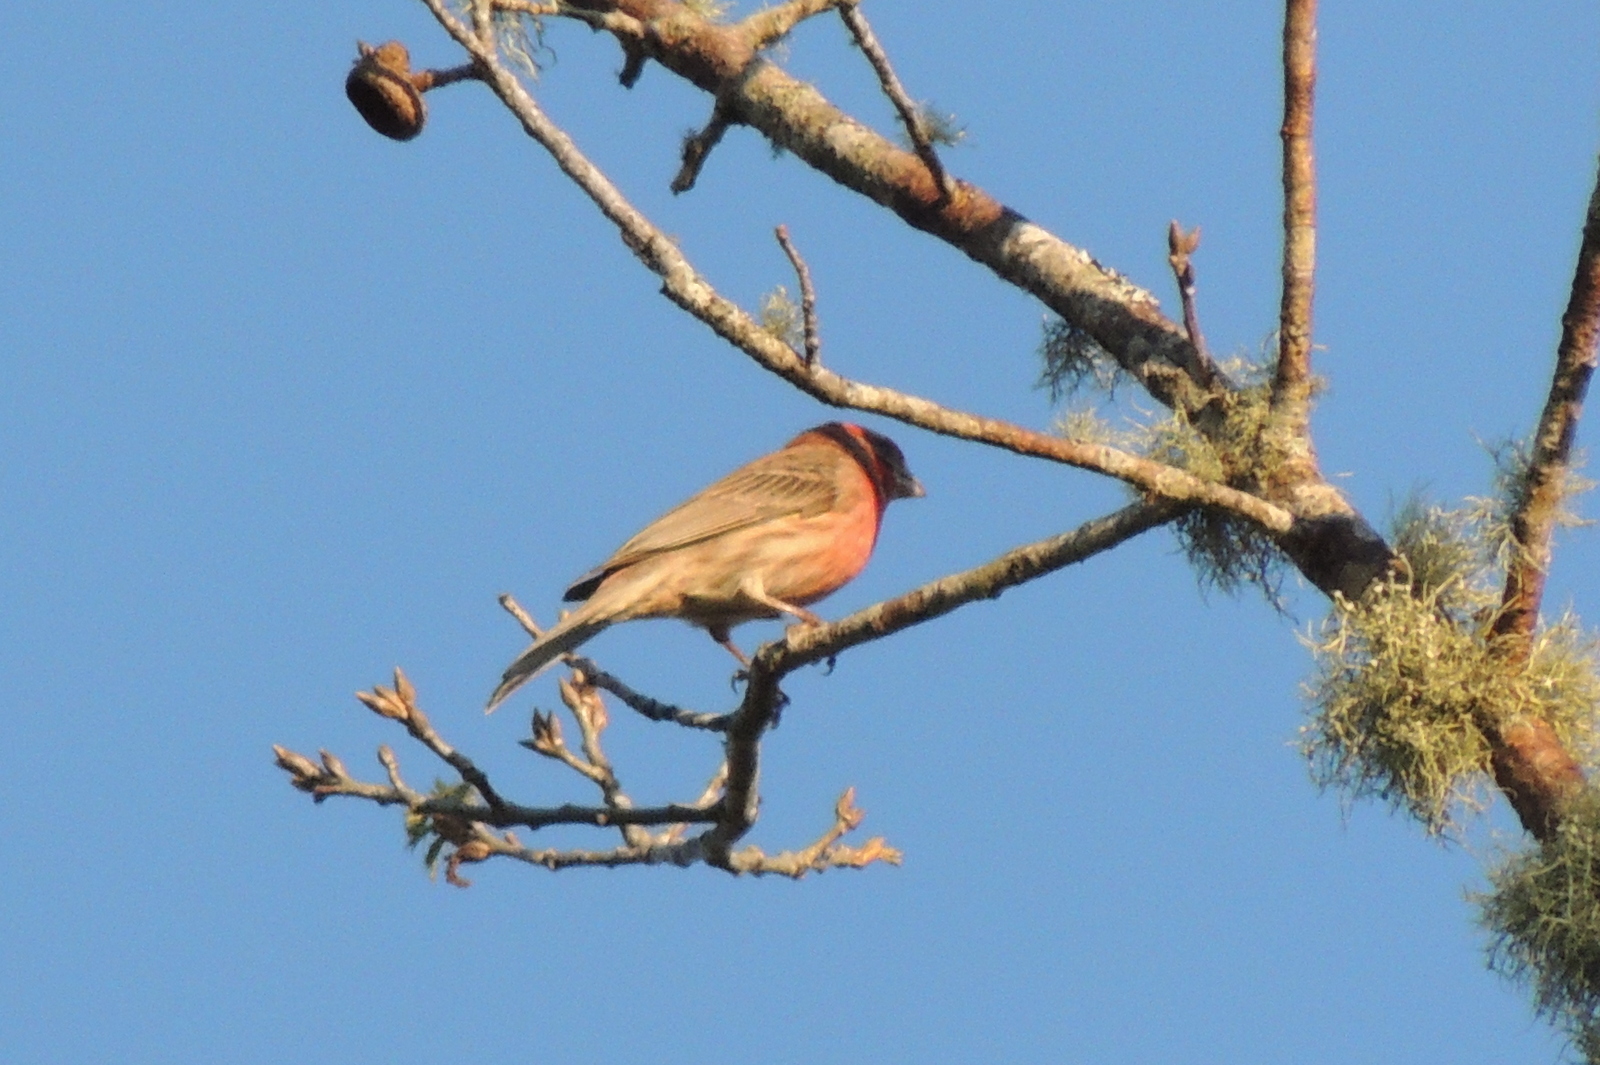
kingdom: Animalia
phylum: Chordata
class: Aves
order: Passeriformes
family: Fringillidae
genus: Haemorhous
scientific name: Haemorhous mexicanus
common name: House finch
